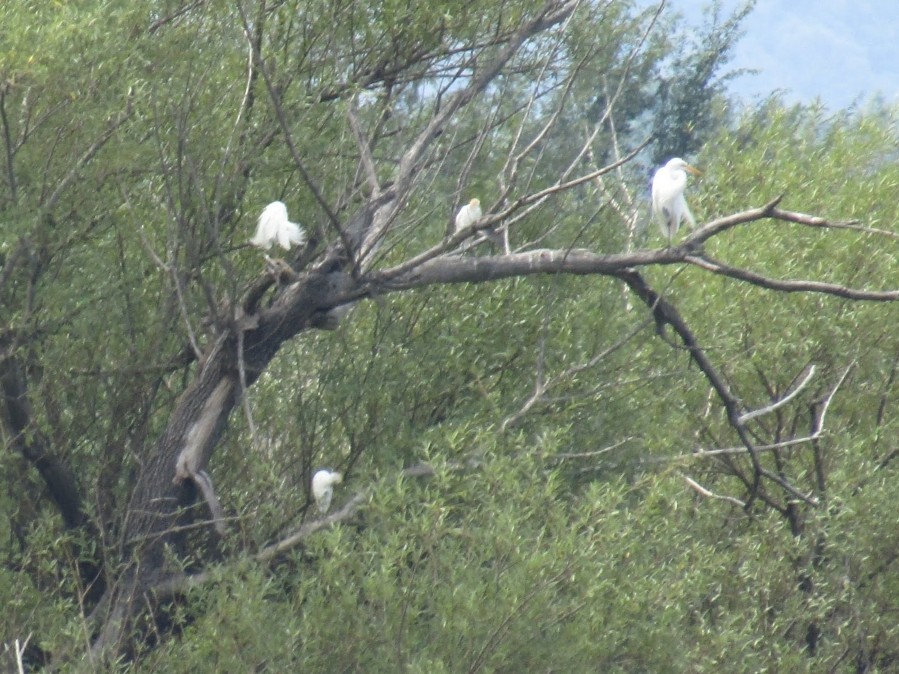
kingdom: Animalia
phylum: Chordata
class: Aves
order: Pelecaniformes
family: Ardeidae
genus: Bubulcus
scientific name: Bubulcus ibis
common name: Cattle egret
